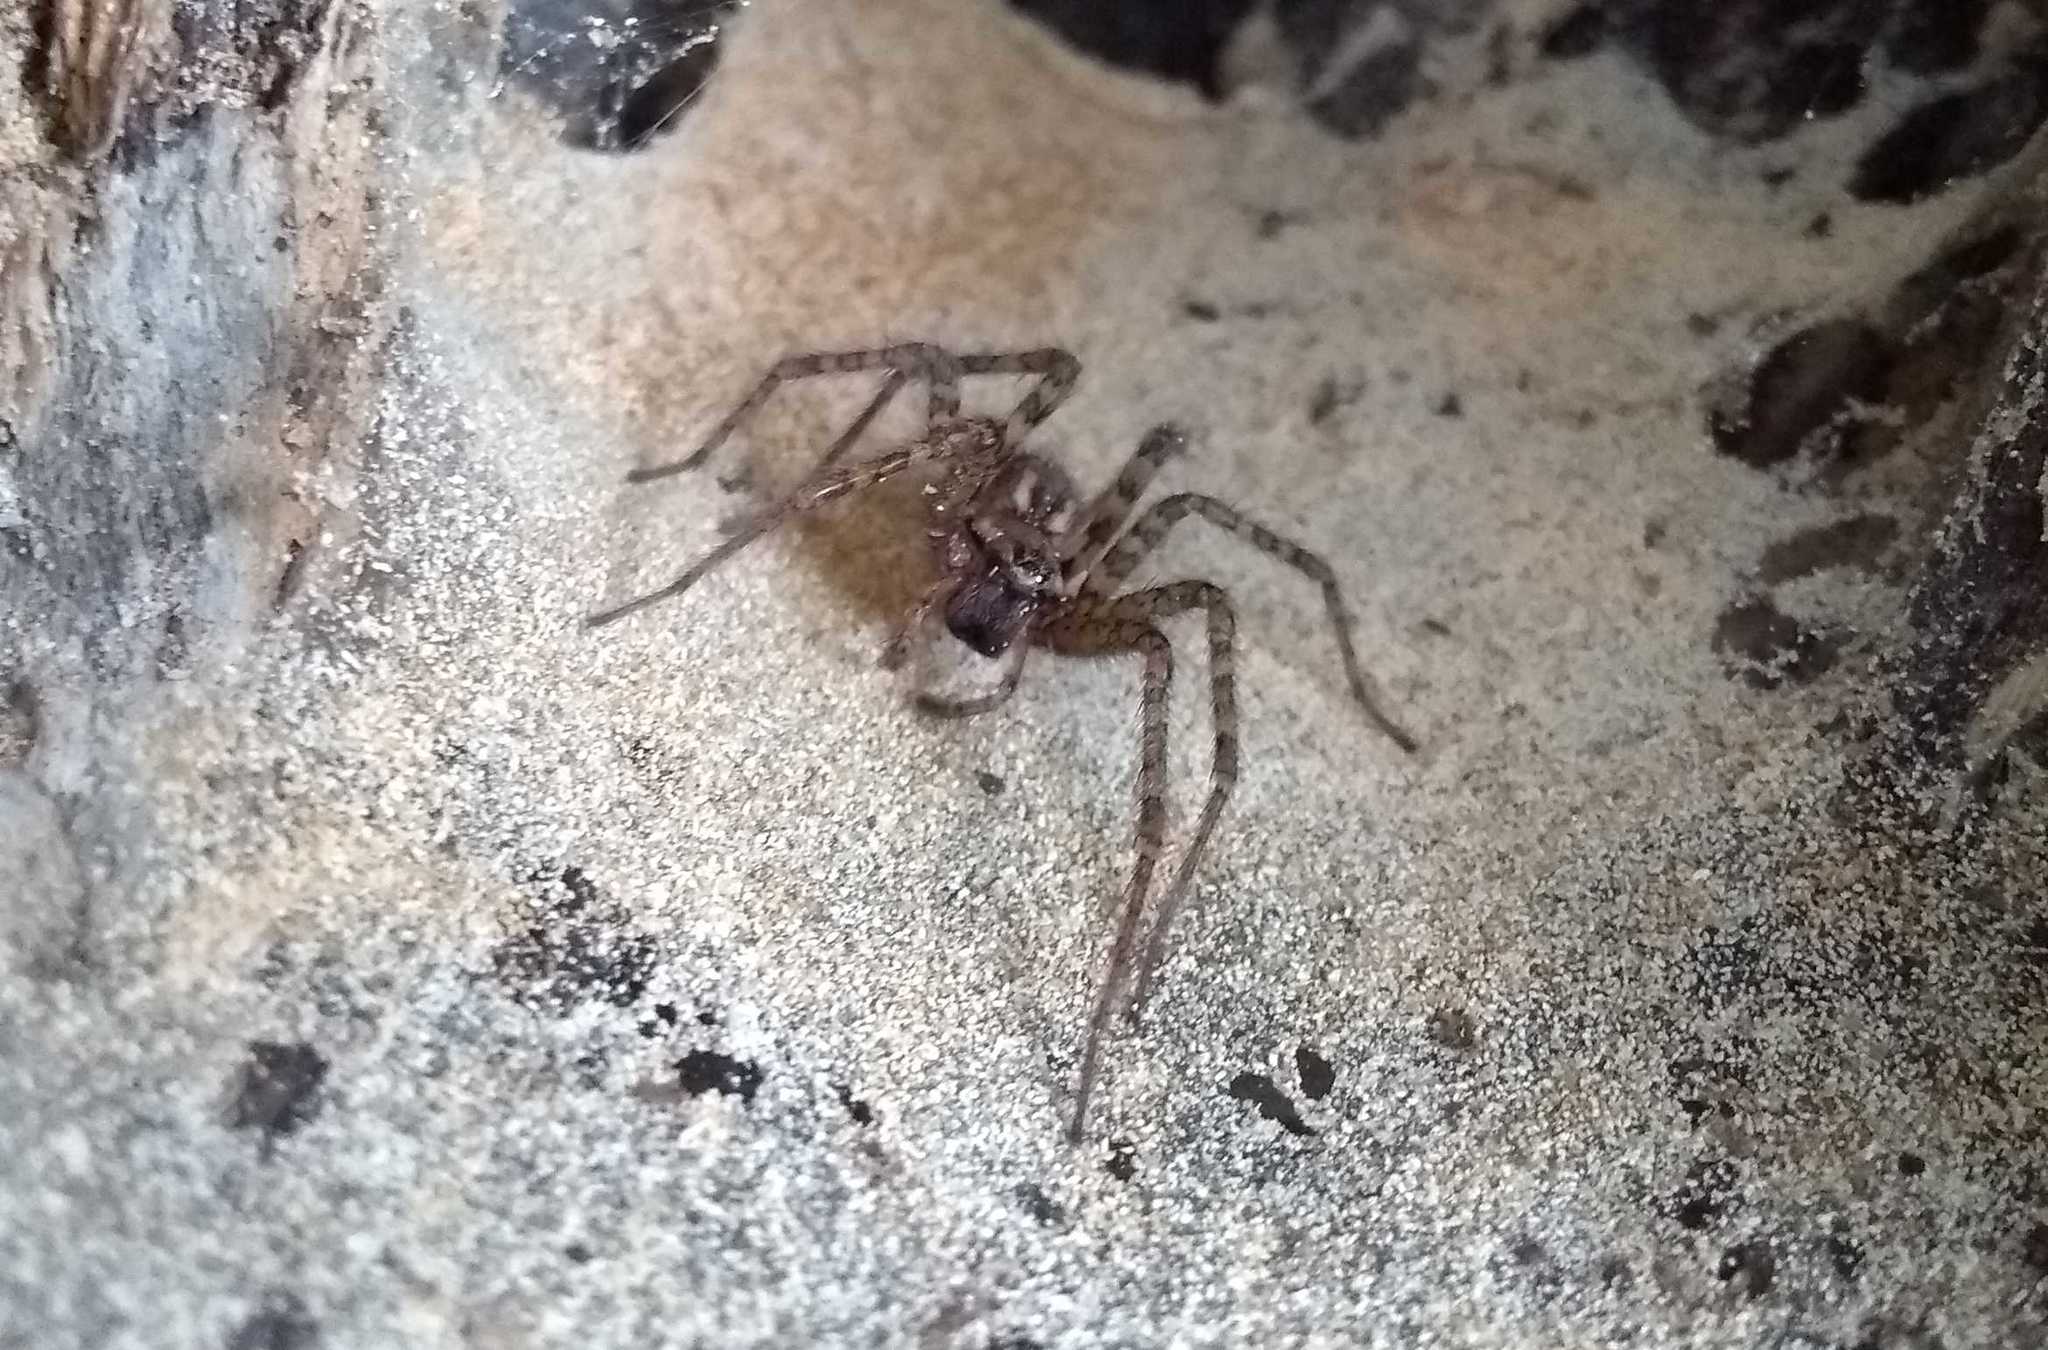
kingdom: Animalia
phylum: Arthropoda
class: Arachnida
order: Araneae
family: Agelenidae
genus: Tegenaria
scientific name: Tegenaria
